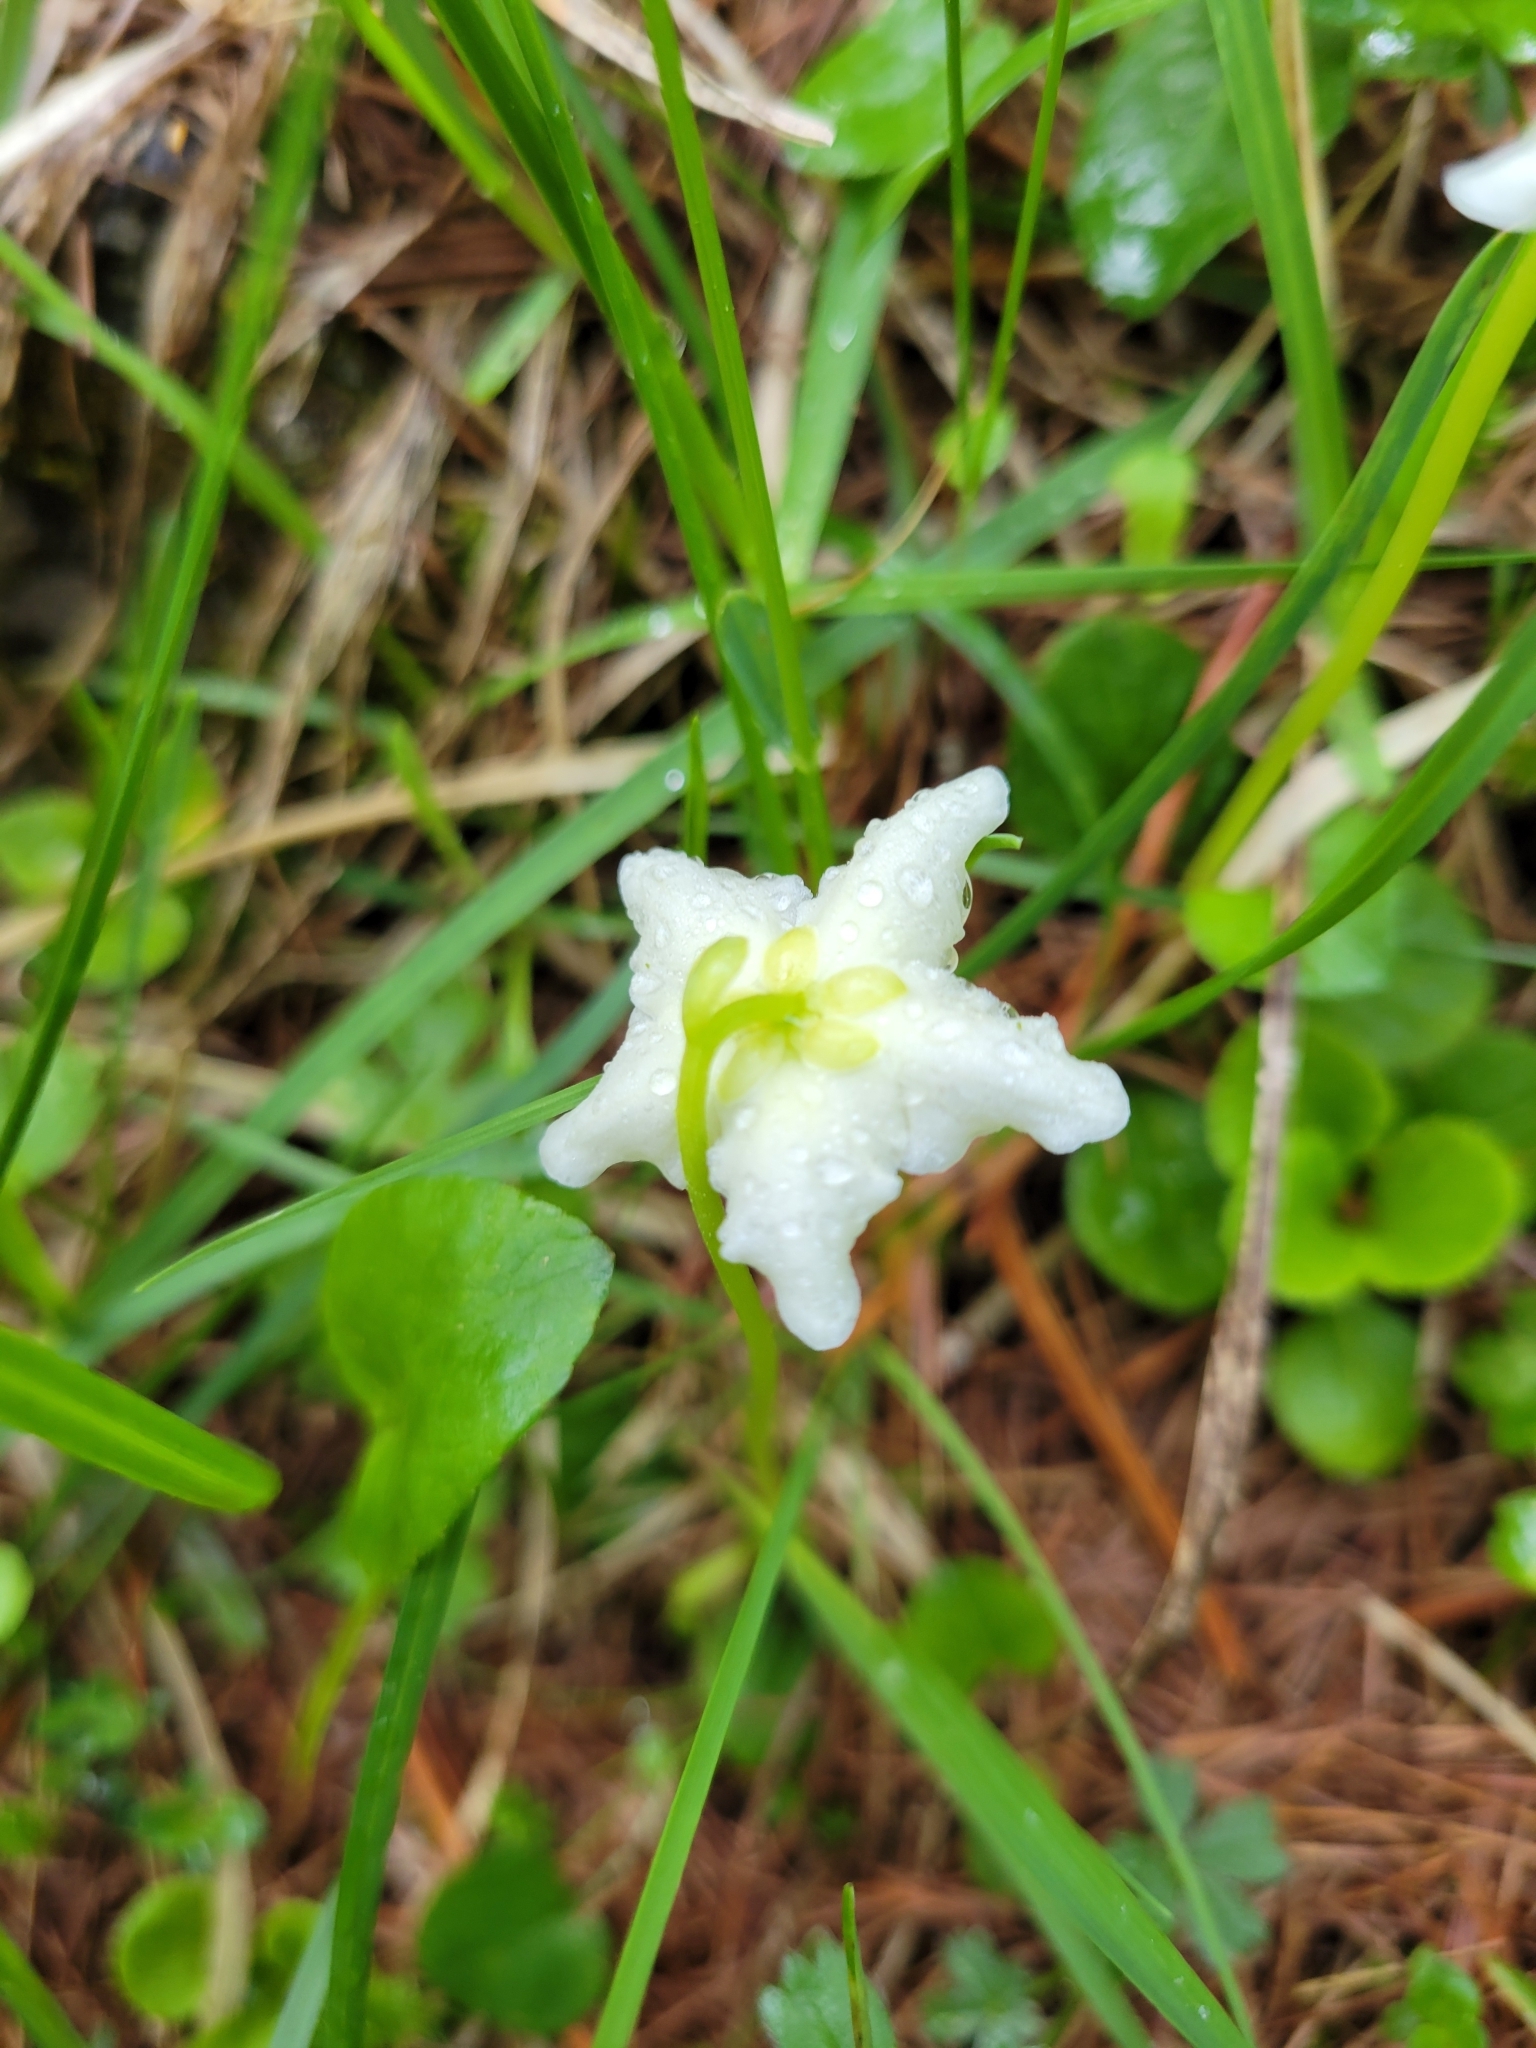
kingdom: Plantae
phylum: Tracheophyta
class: Magnoliopsida
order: Ericales
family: Ericaceae
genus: Moneses
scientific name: Moneses uniflora
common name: One-flowered wintergreen
